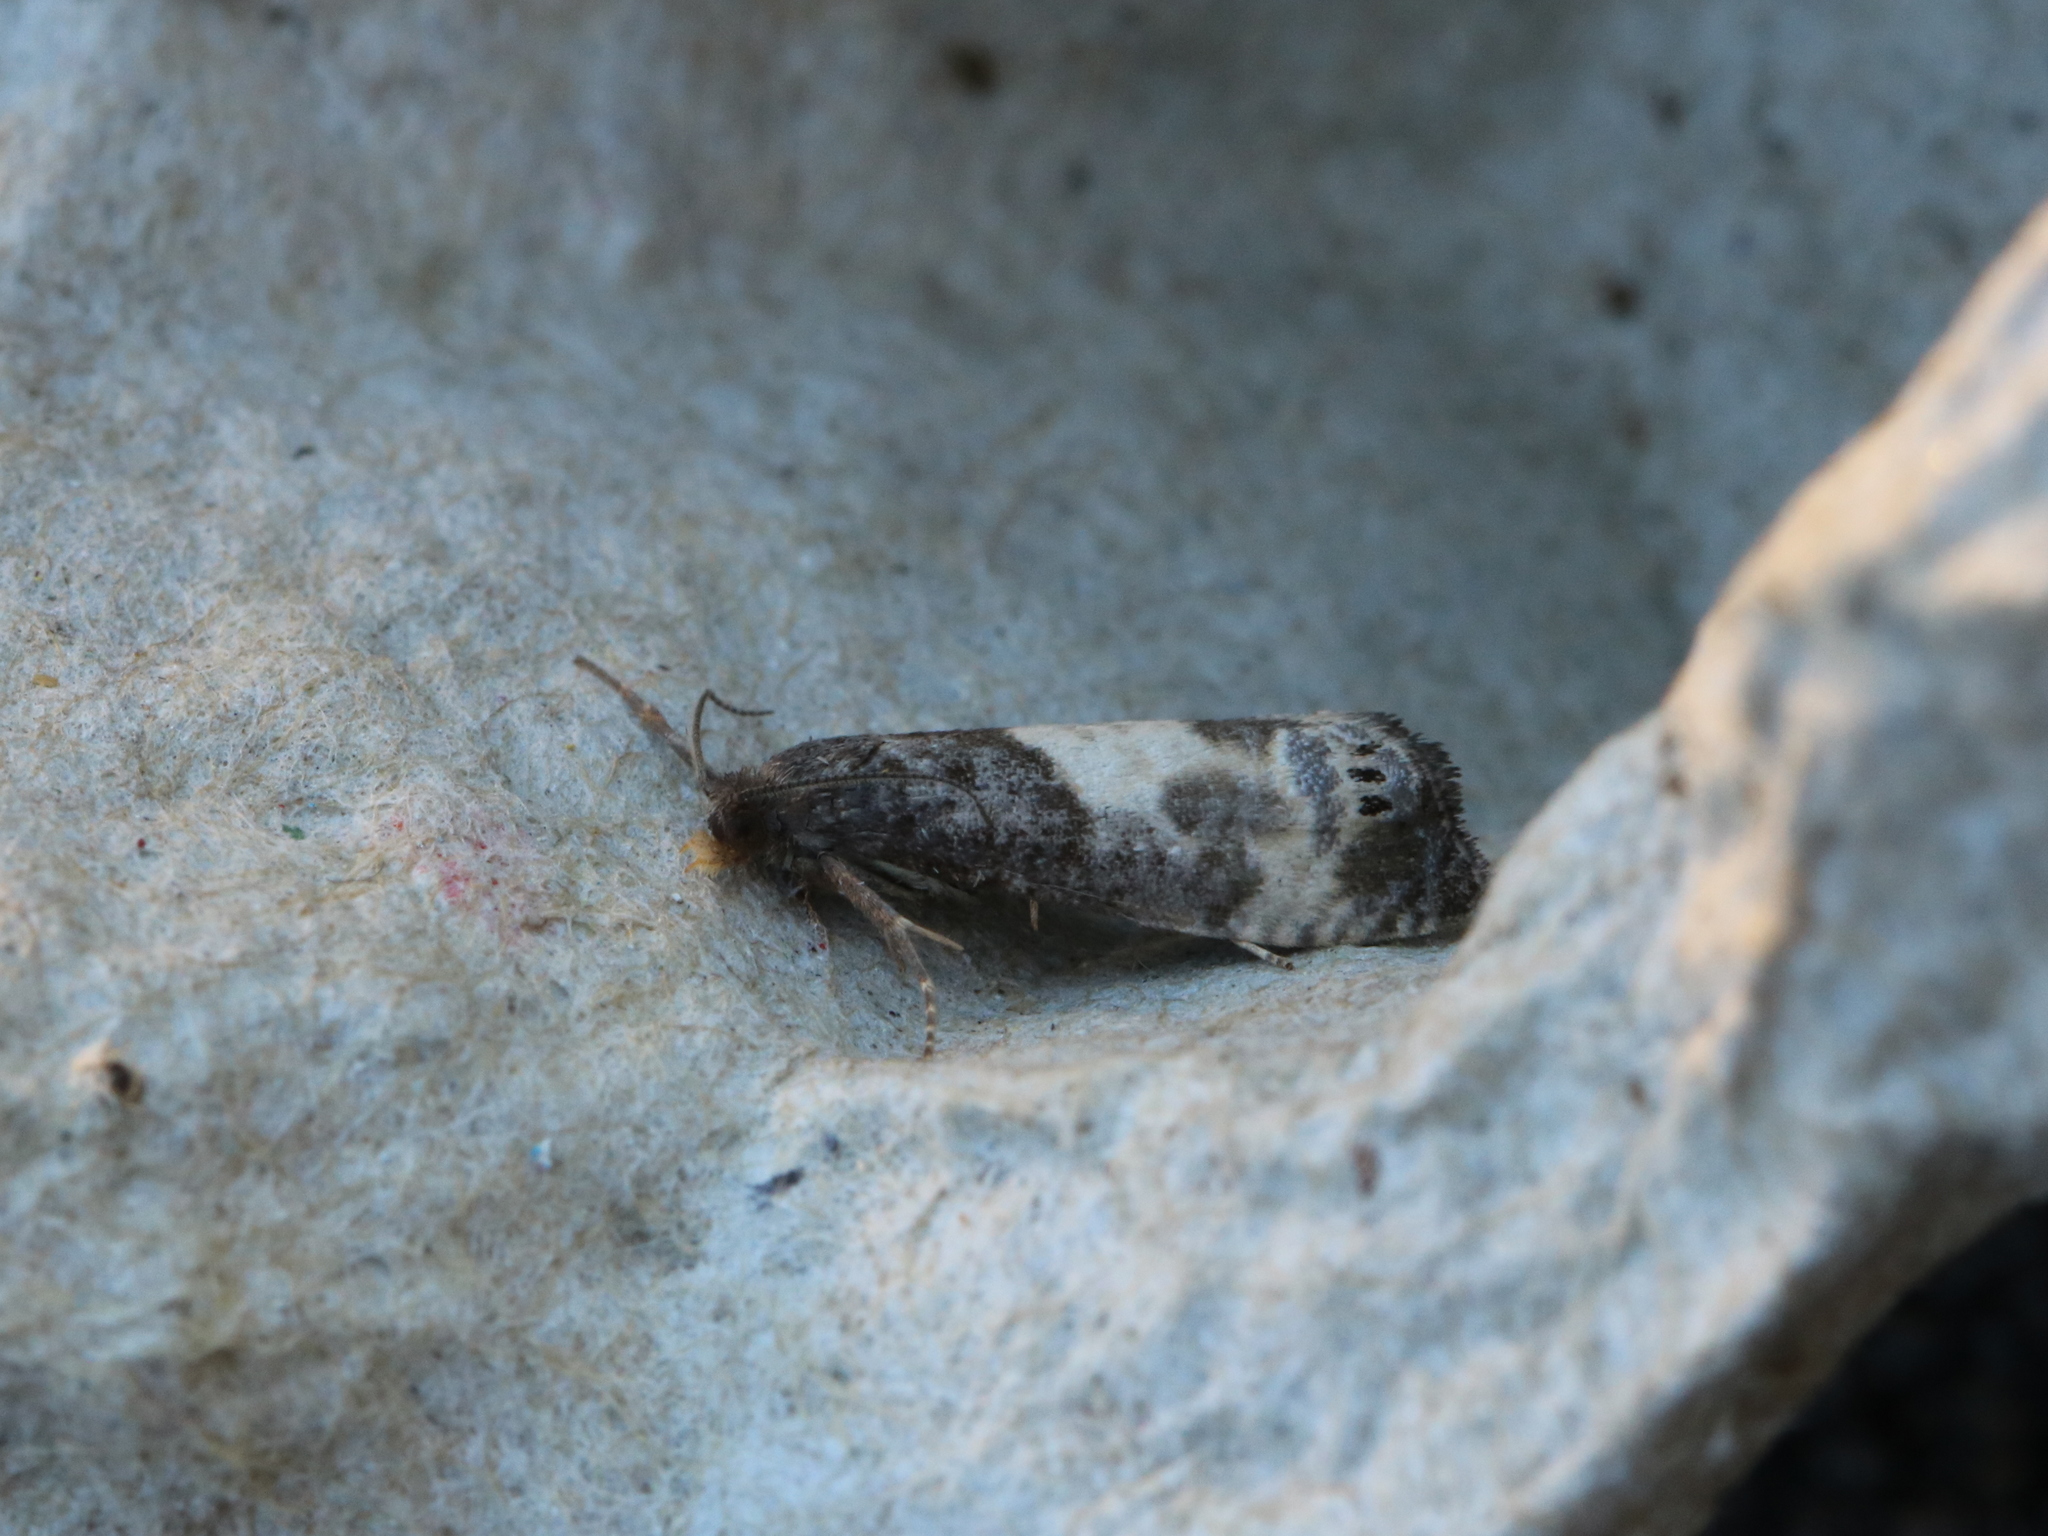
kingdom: Animalia
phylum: Arthropoda
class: Insecta
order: Lepidoptera
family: Tortricidae
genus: Notocelia
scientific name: Notocelia cynosbatella
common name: Yellow-faced bell moth
